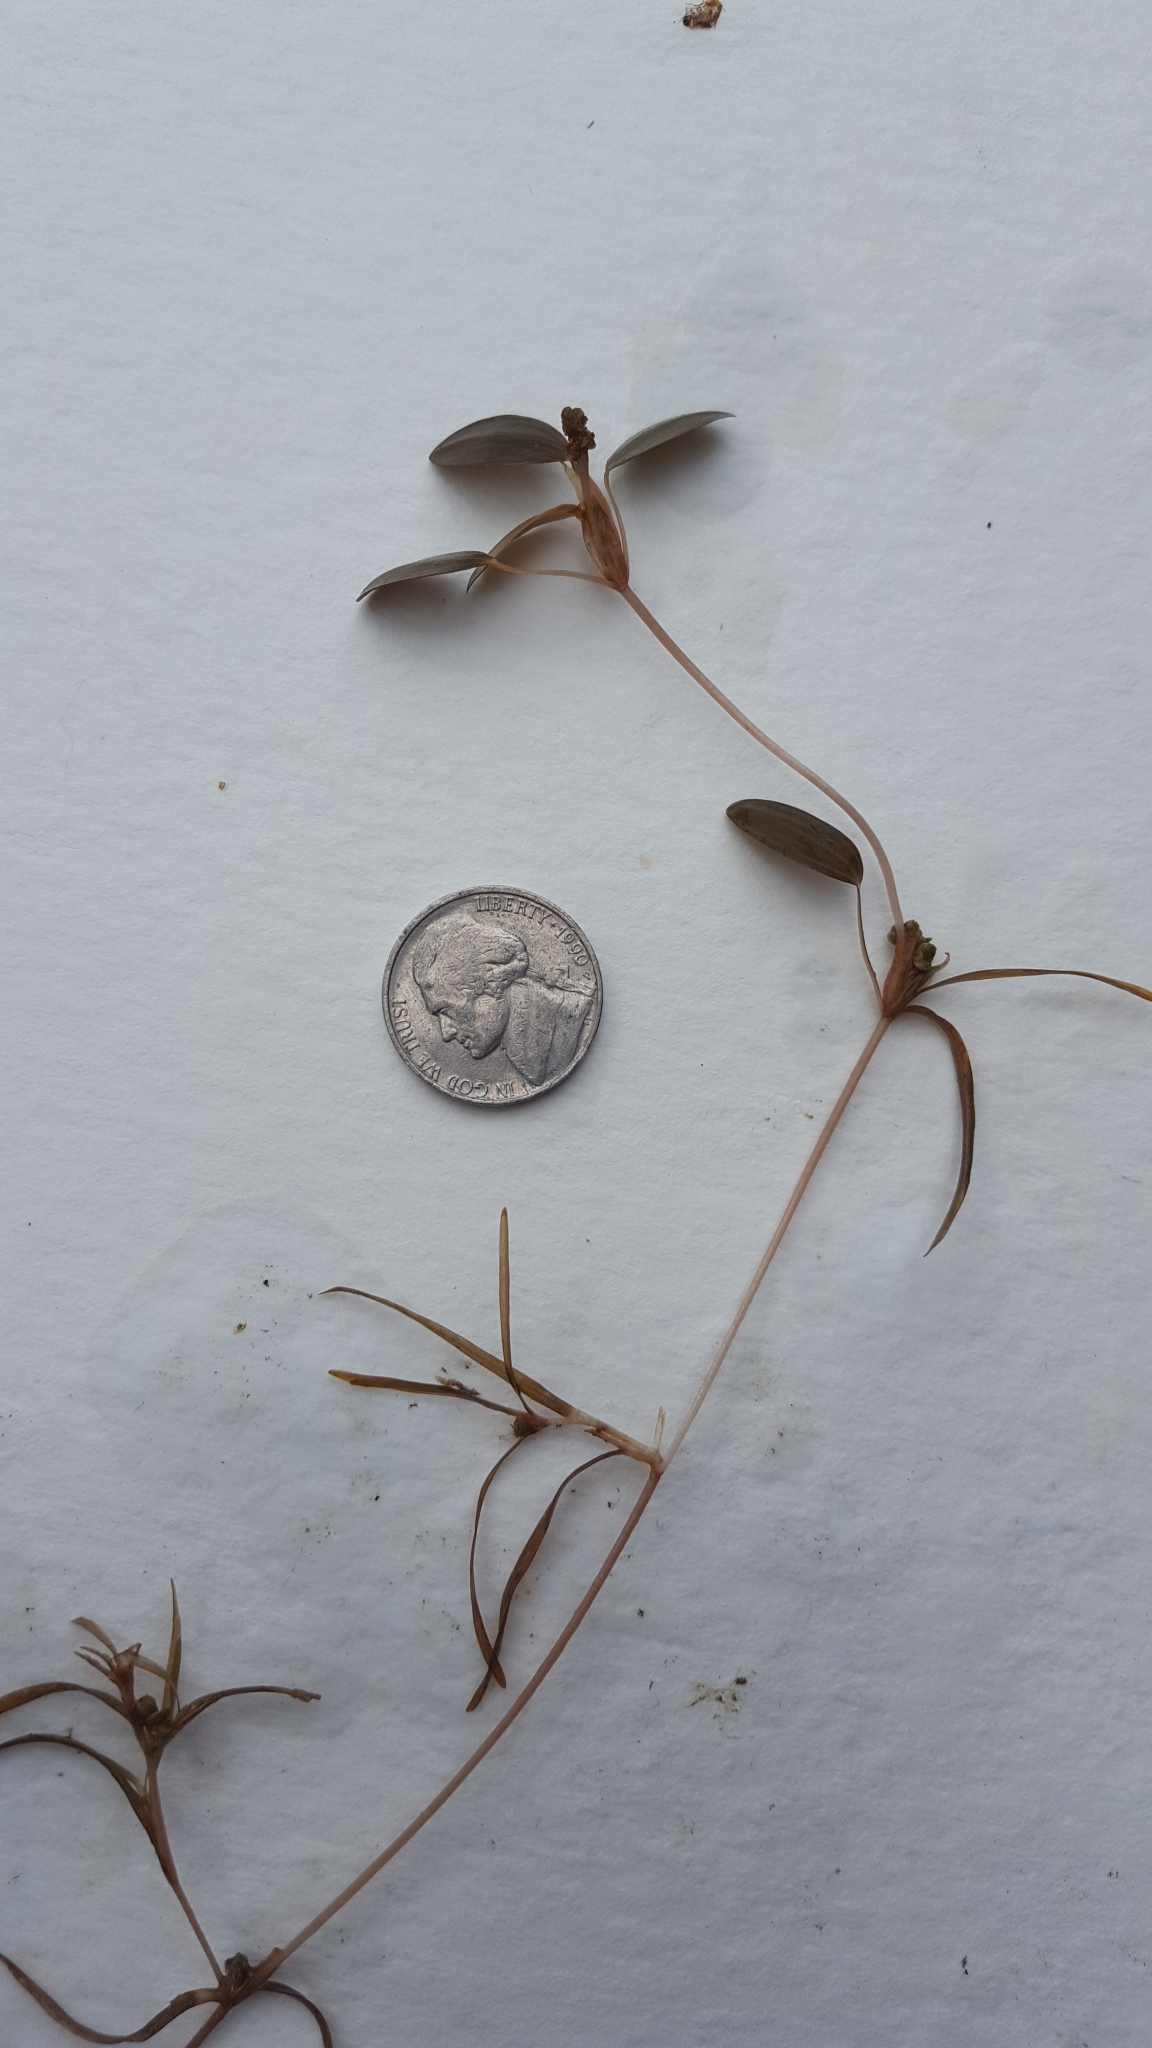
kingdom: Plantae
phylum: Tracheophyta
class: Liliopsida
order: Alismatales
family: Potamogetonaceae
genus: Potamogeton
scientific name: Potamogeton spirillus
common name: Northern snail-seed pondweed
